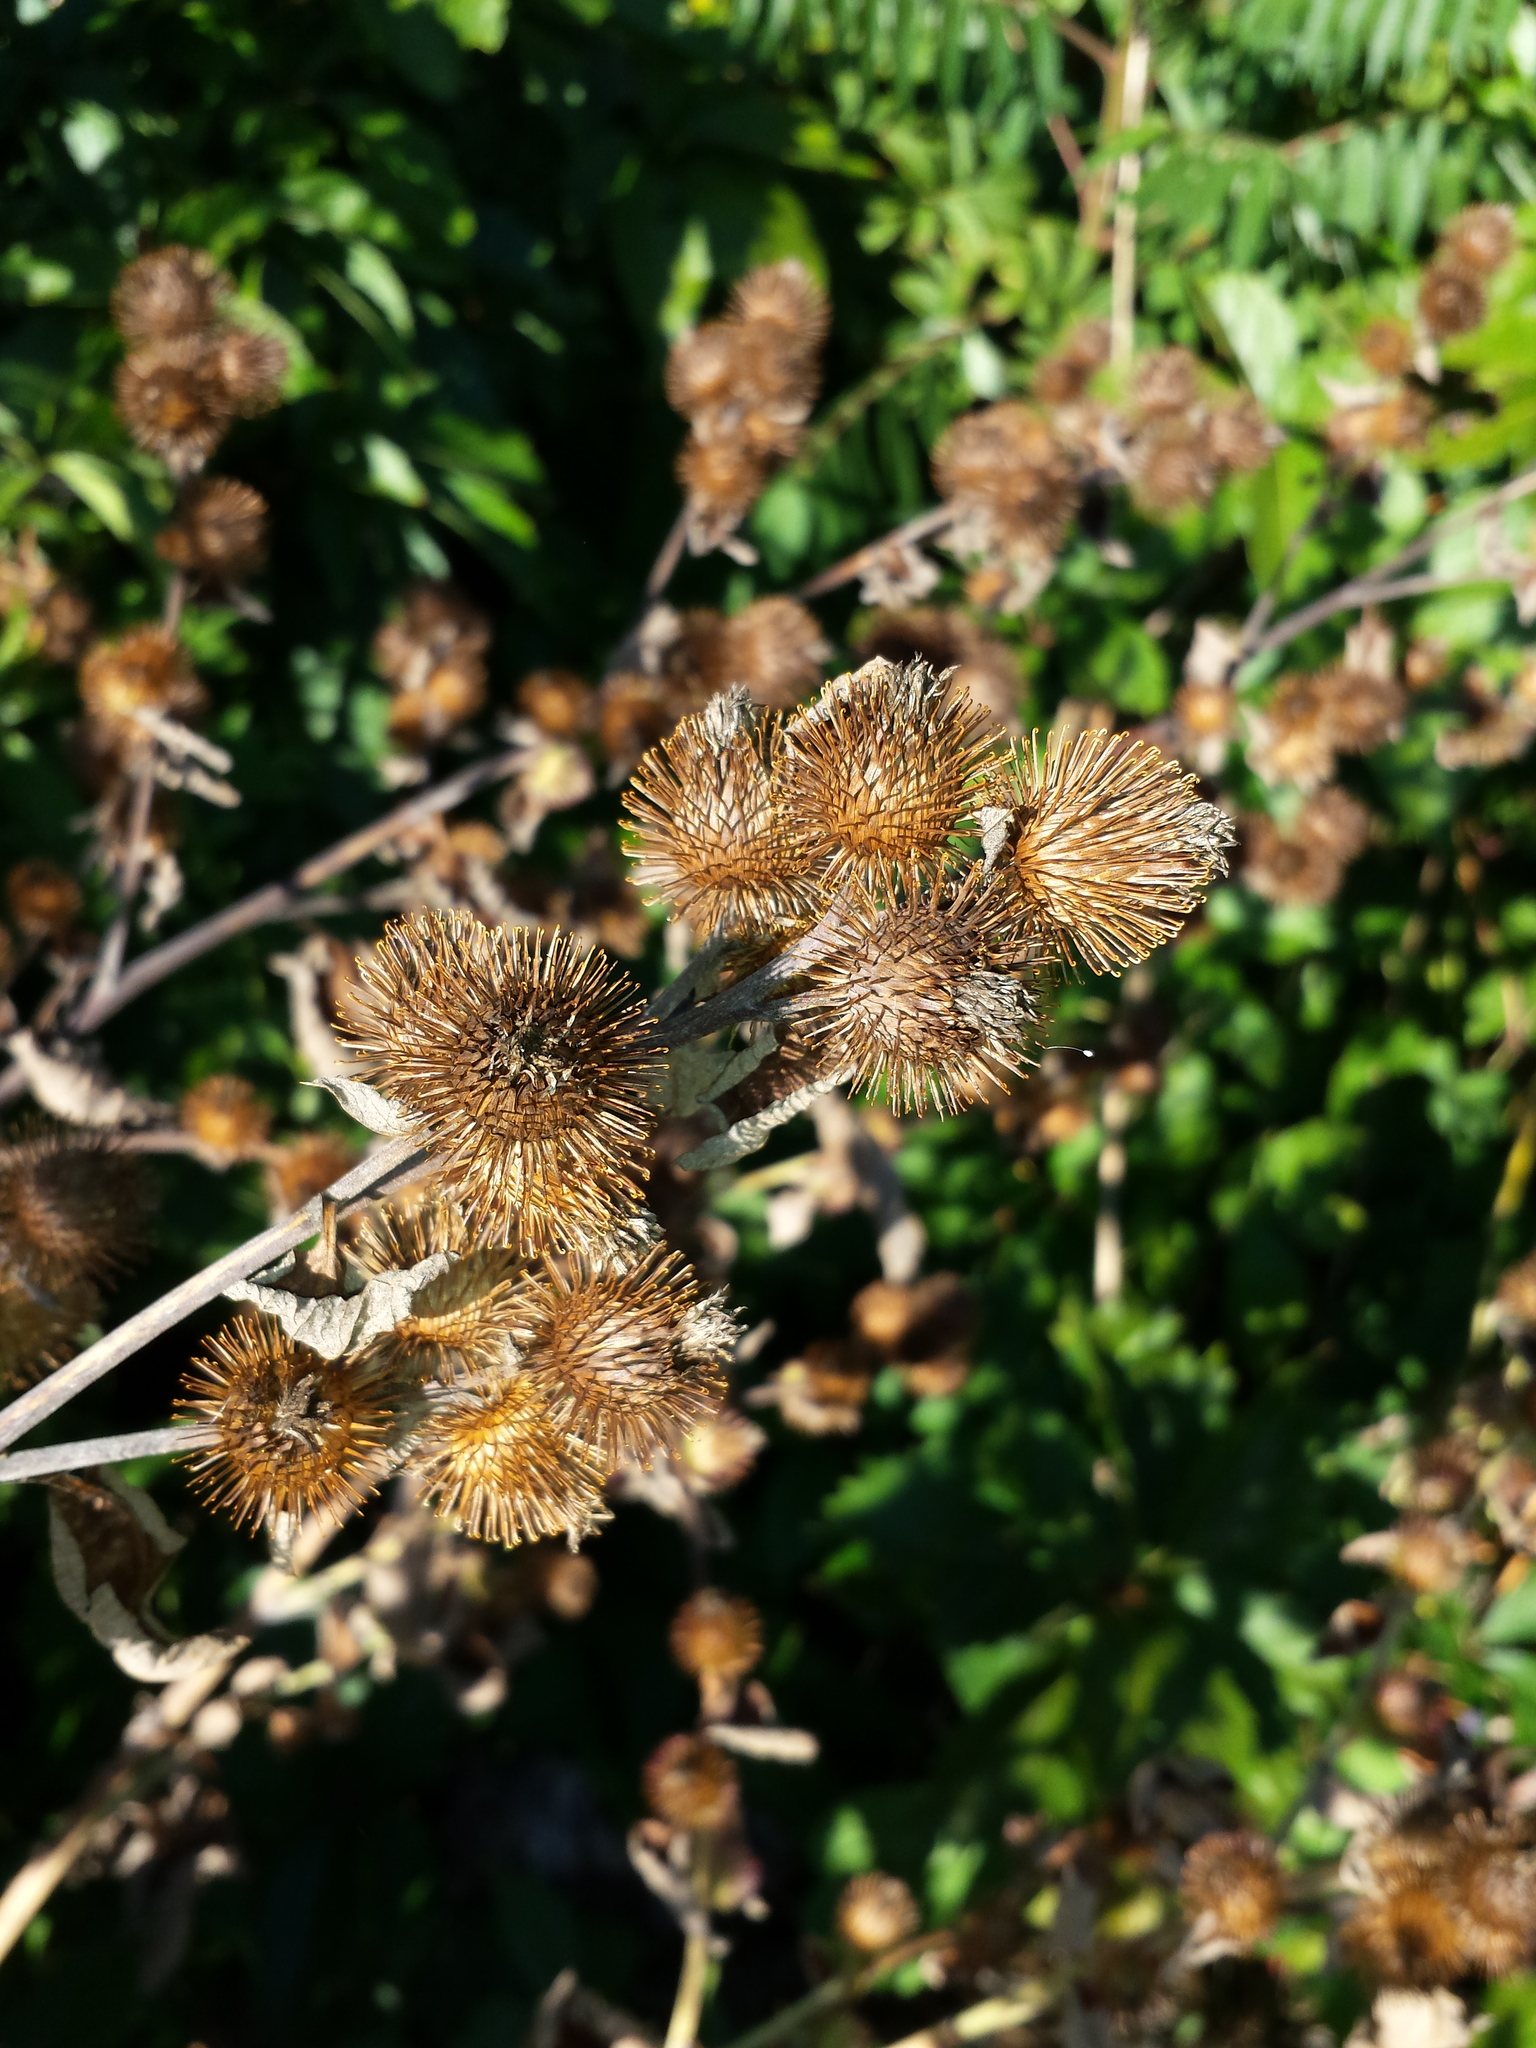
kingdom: Plantae
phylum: Tracheophyta
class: Magnoliopsida
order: Asterales
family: Asteraceae
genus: Arctium
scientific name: Arctium minus
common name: Lesser burdock
